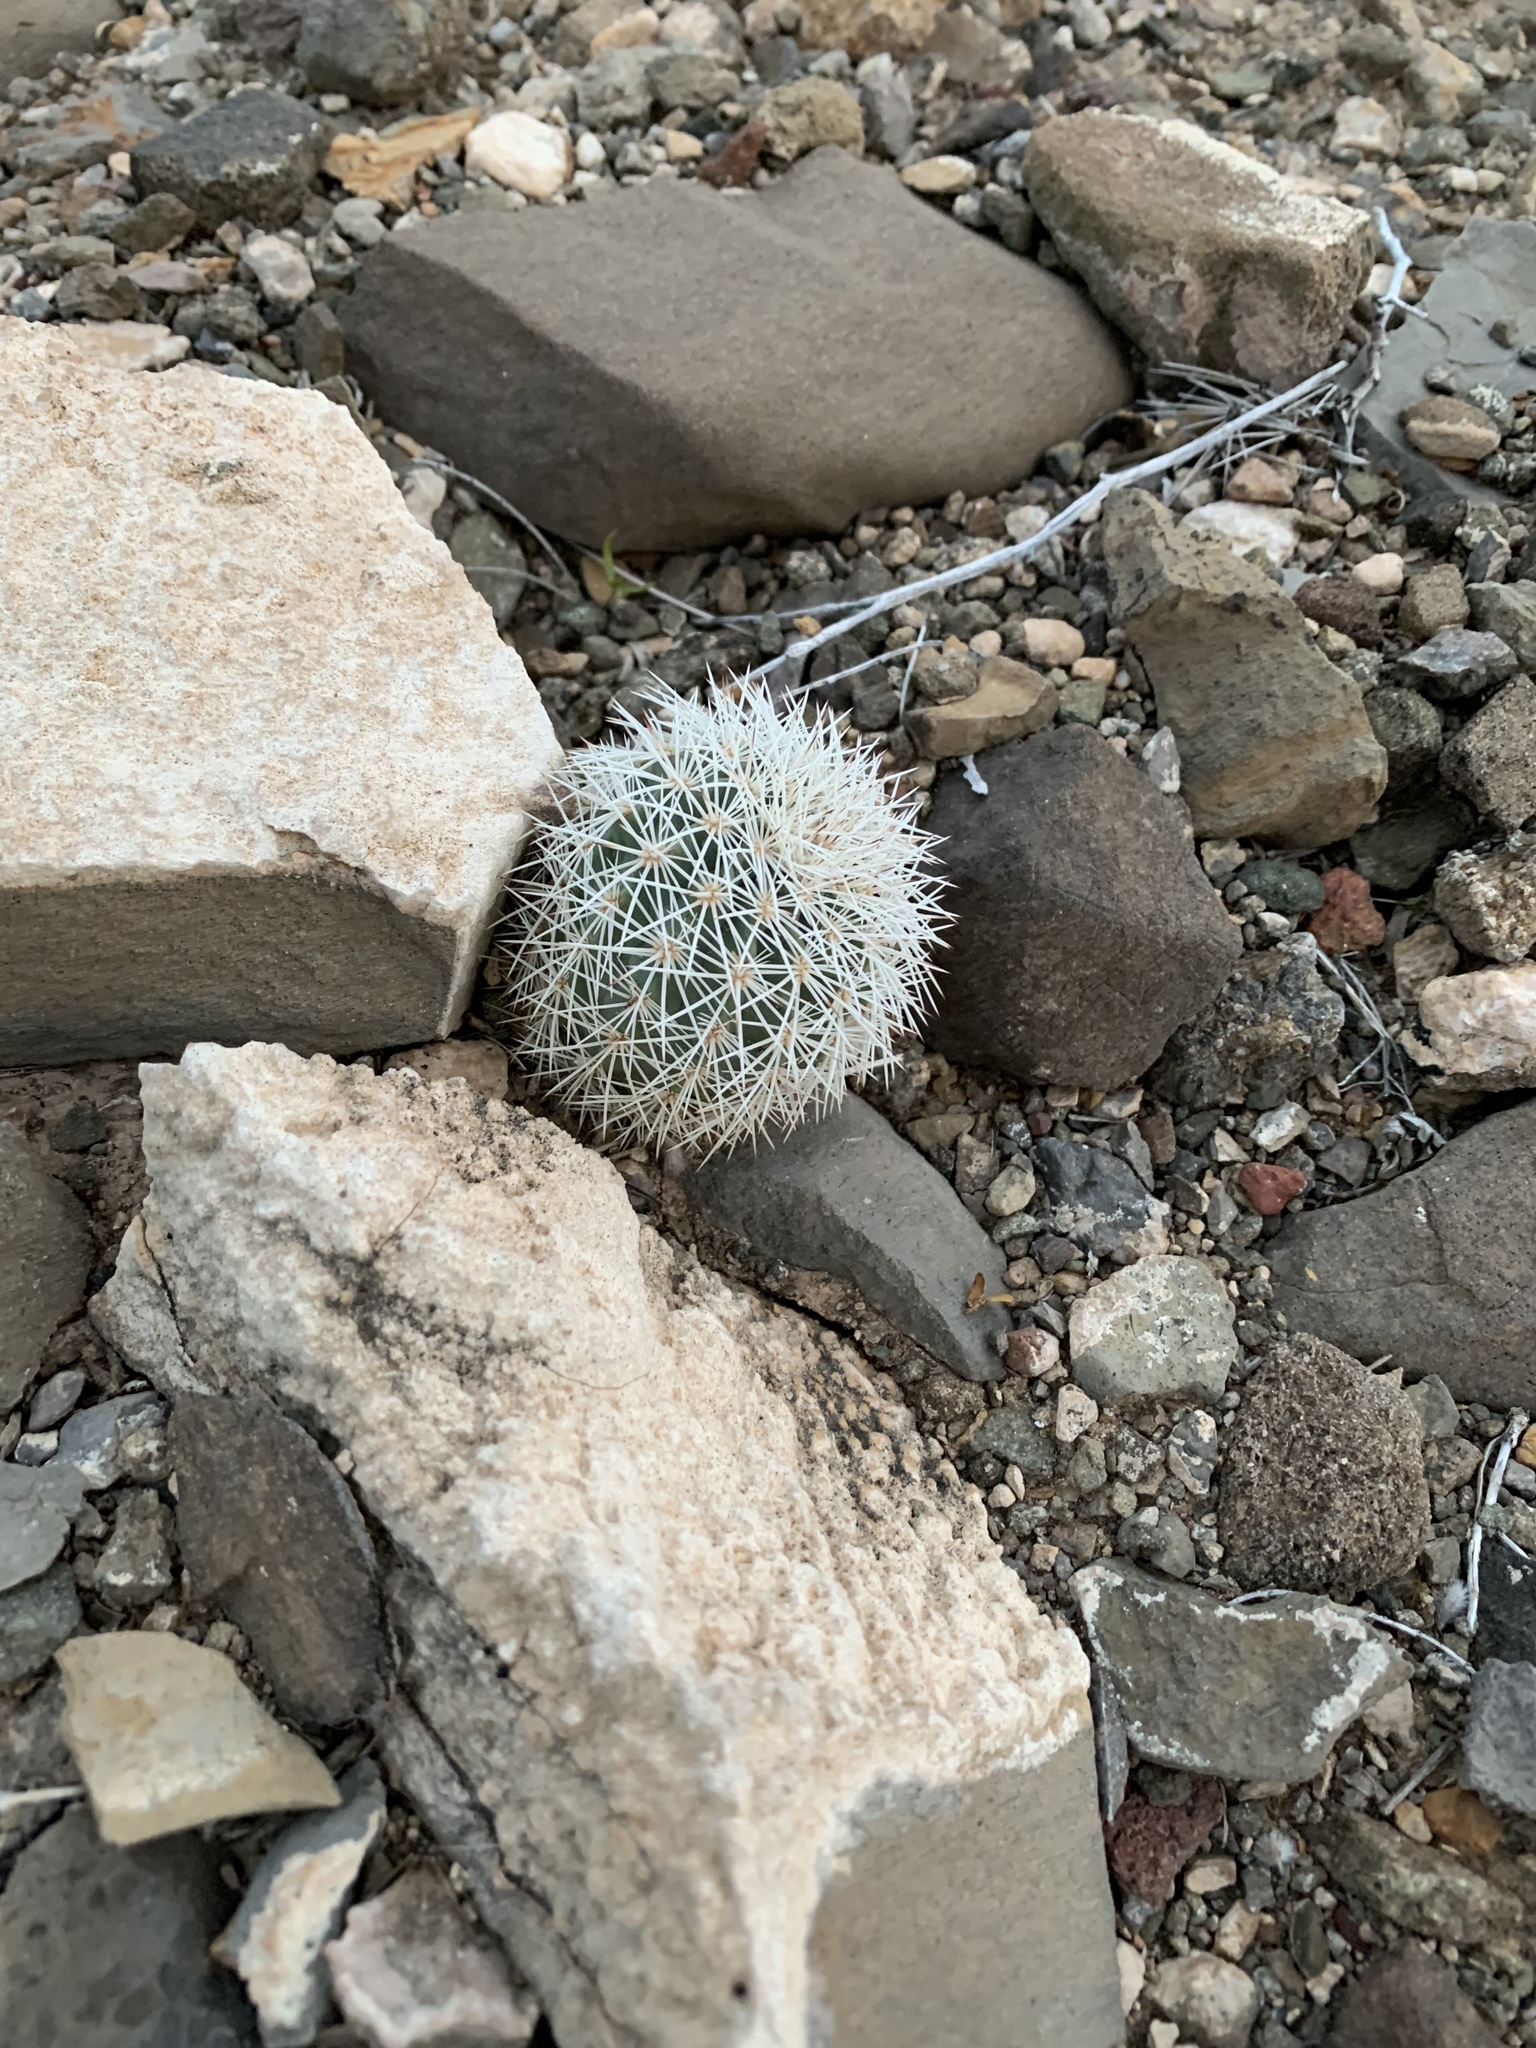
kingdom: Plantae
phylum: Tracheophyta
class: Magnoliopsida
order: Caryophyllales
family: Cactaceae
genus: Echinocereus
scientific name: Echinocereus dasyacanthus
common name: Spiny hedgehog cactus
